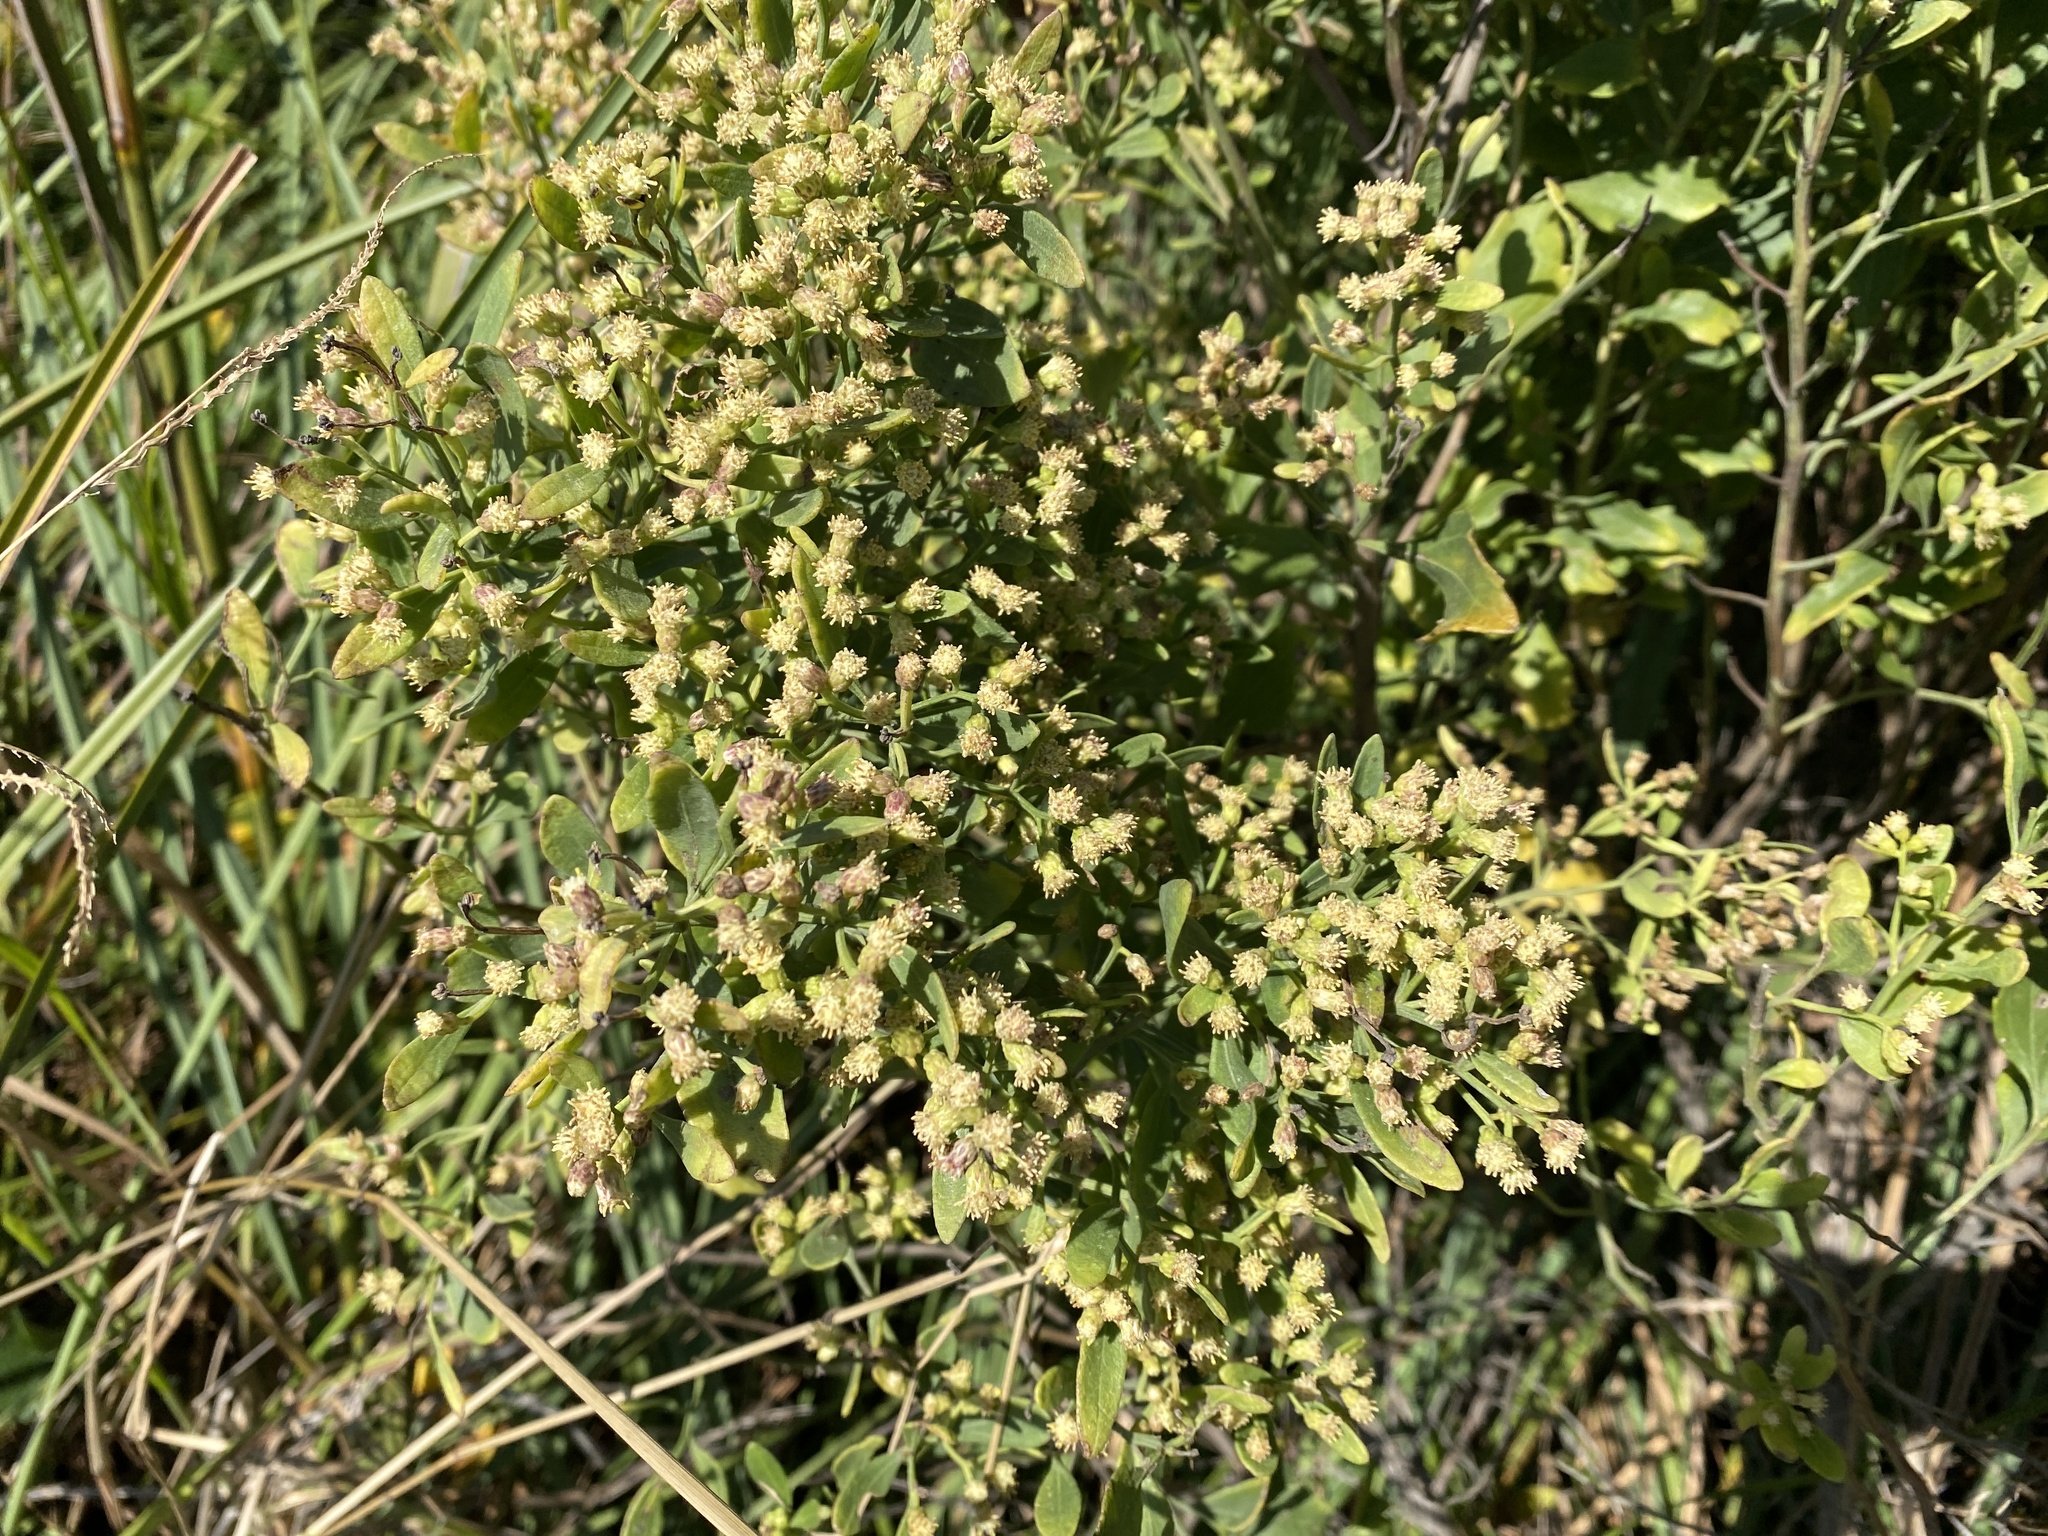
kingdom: Plantae
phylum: Tracheophyta
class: Magnoliopsida
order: Asterales
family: Asteraceae
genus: Baccharis
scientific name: Baccharis halimifolia
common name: Eastern baccharis
